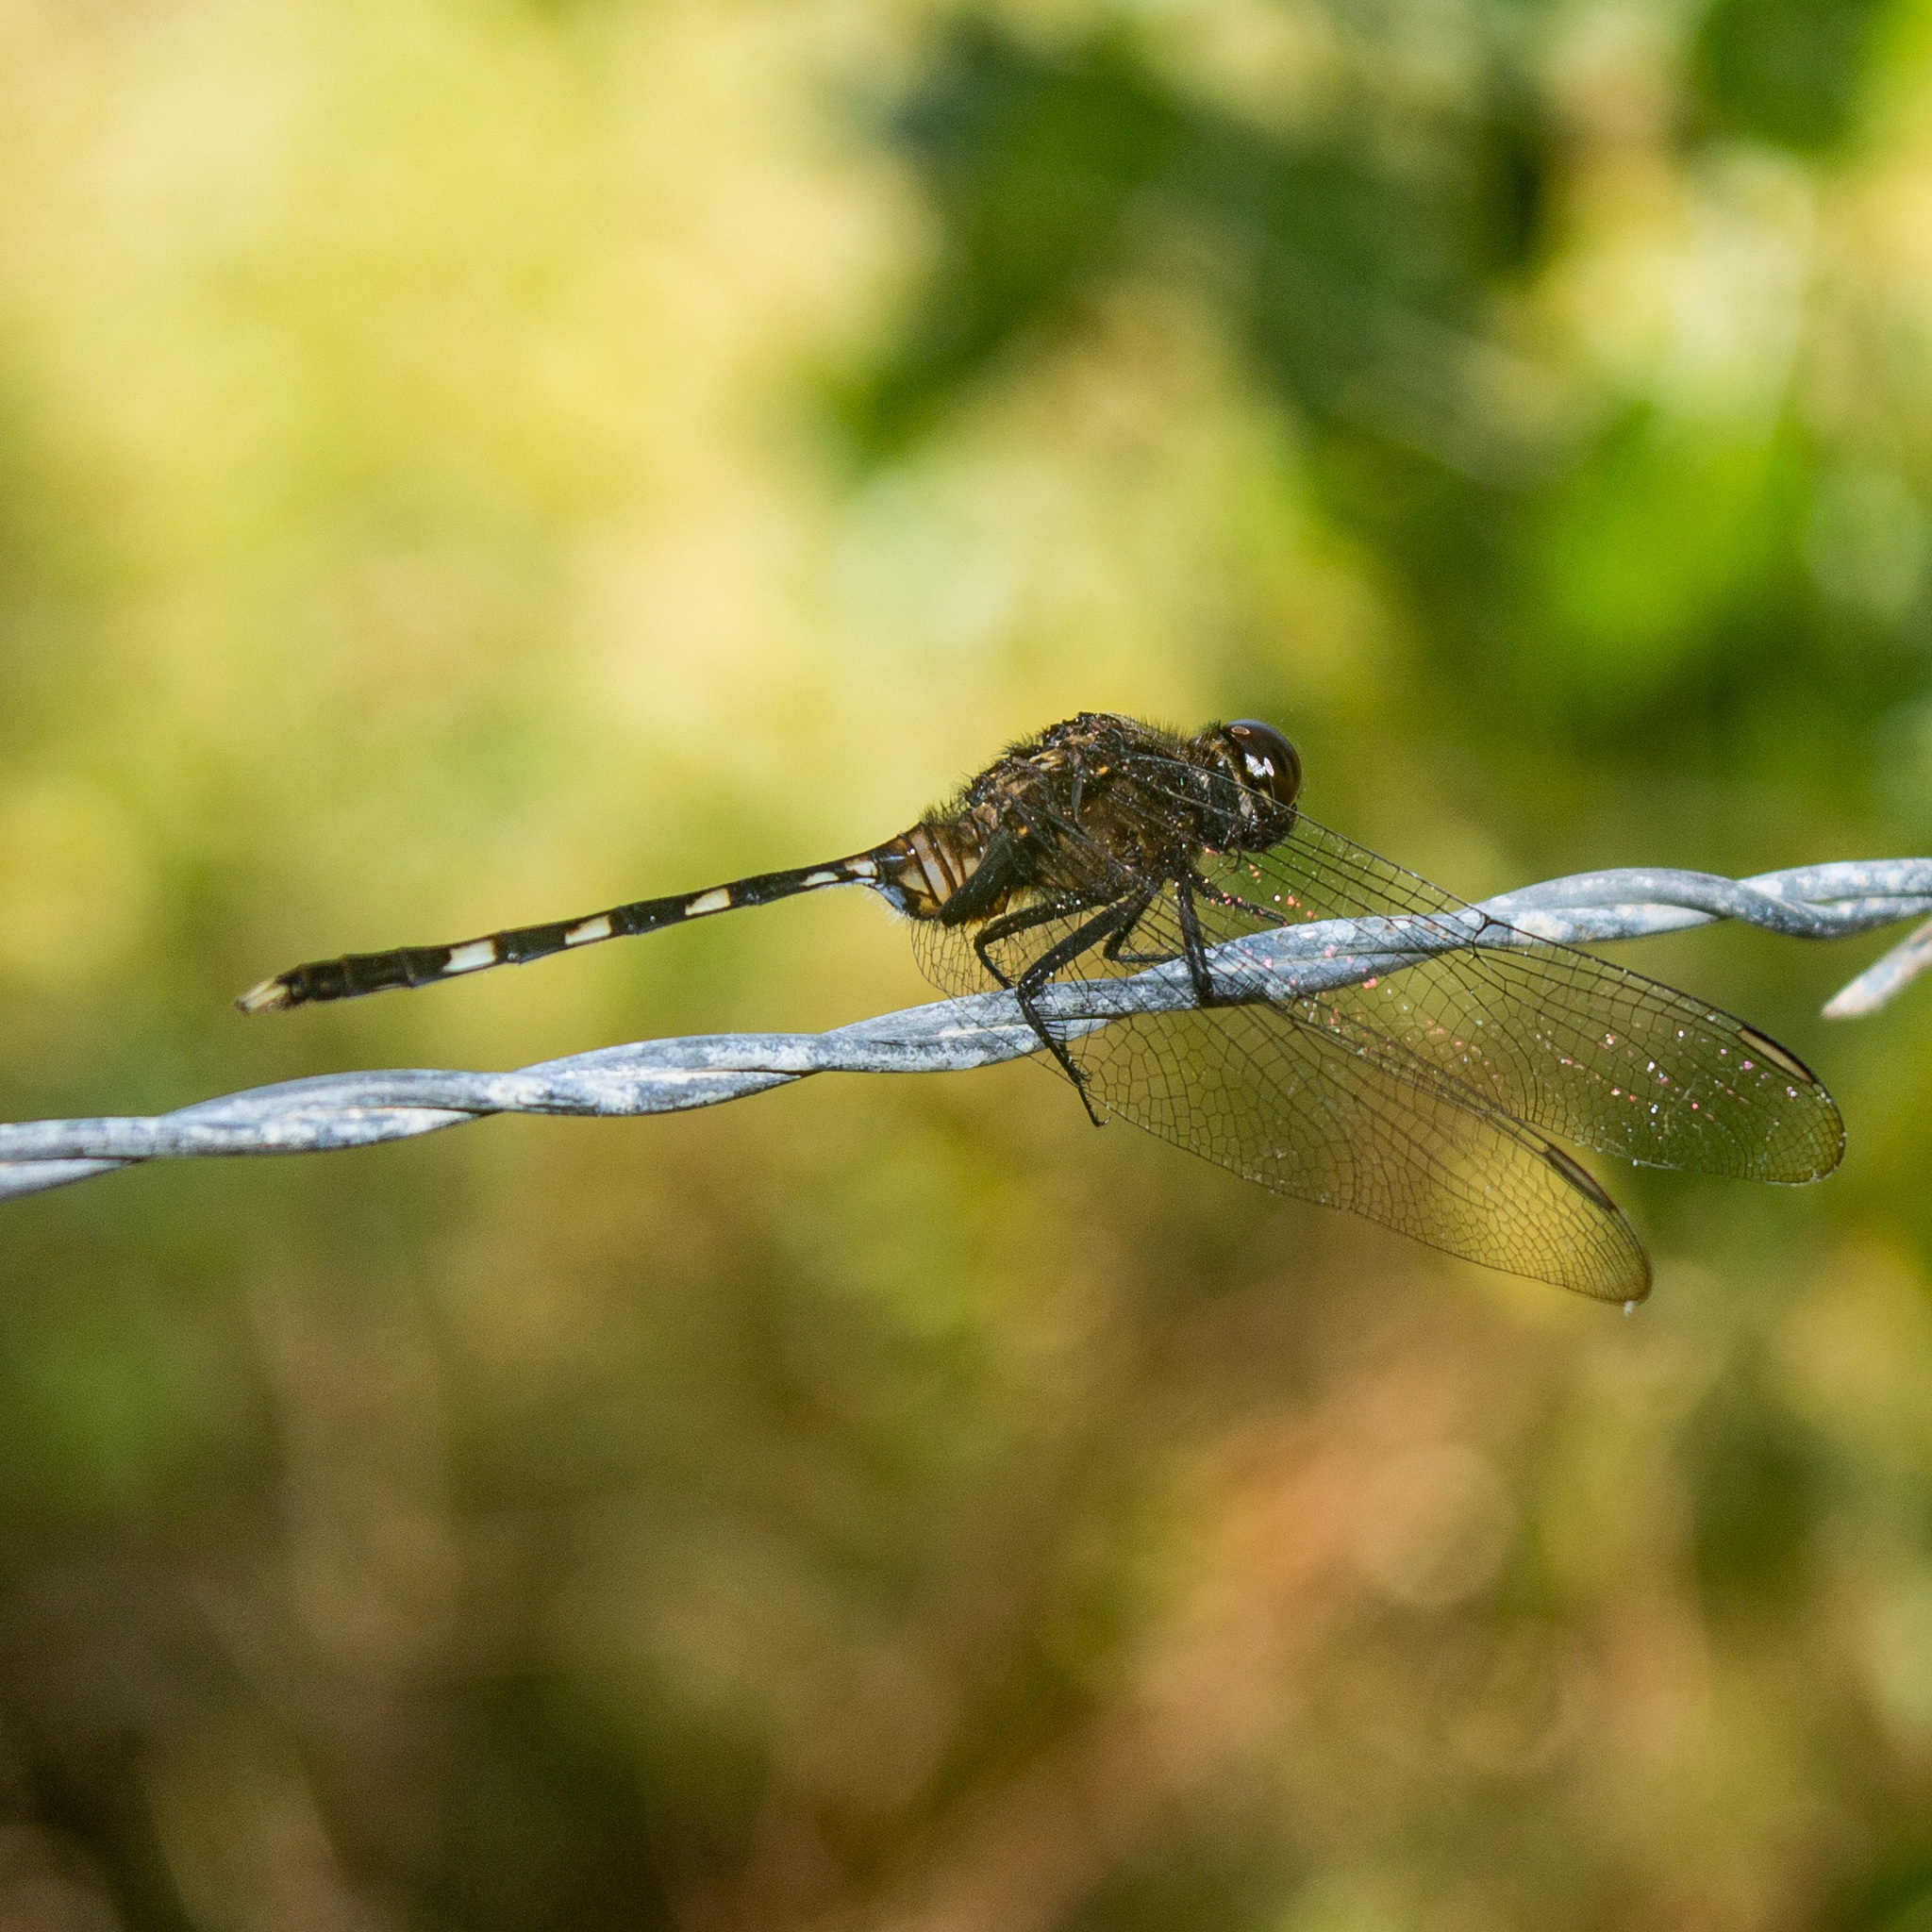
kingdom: Animalia
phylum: Arthropoda
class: Insecta
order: Odonata
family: Libellulidae
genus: Erythemis
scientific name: Erythemis plebeja
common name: Pin-tailed pondhawk
